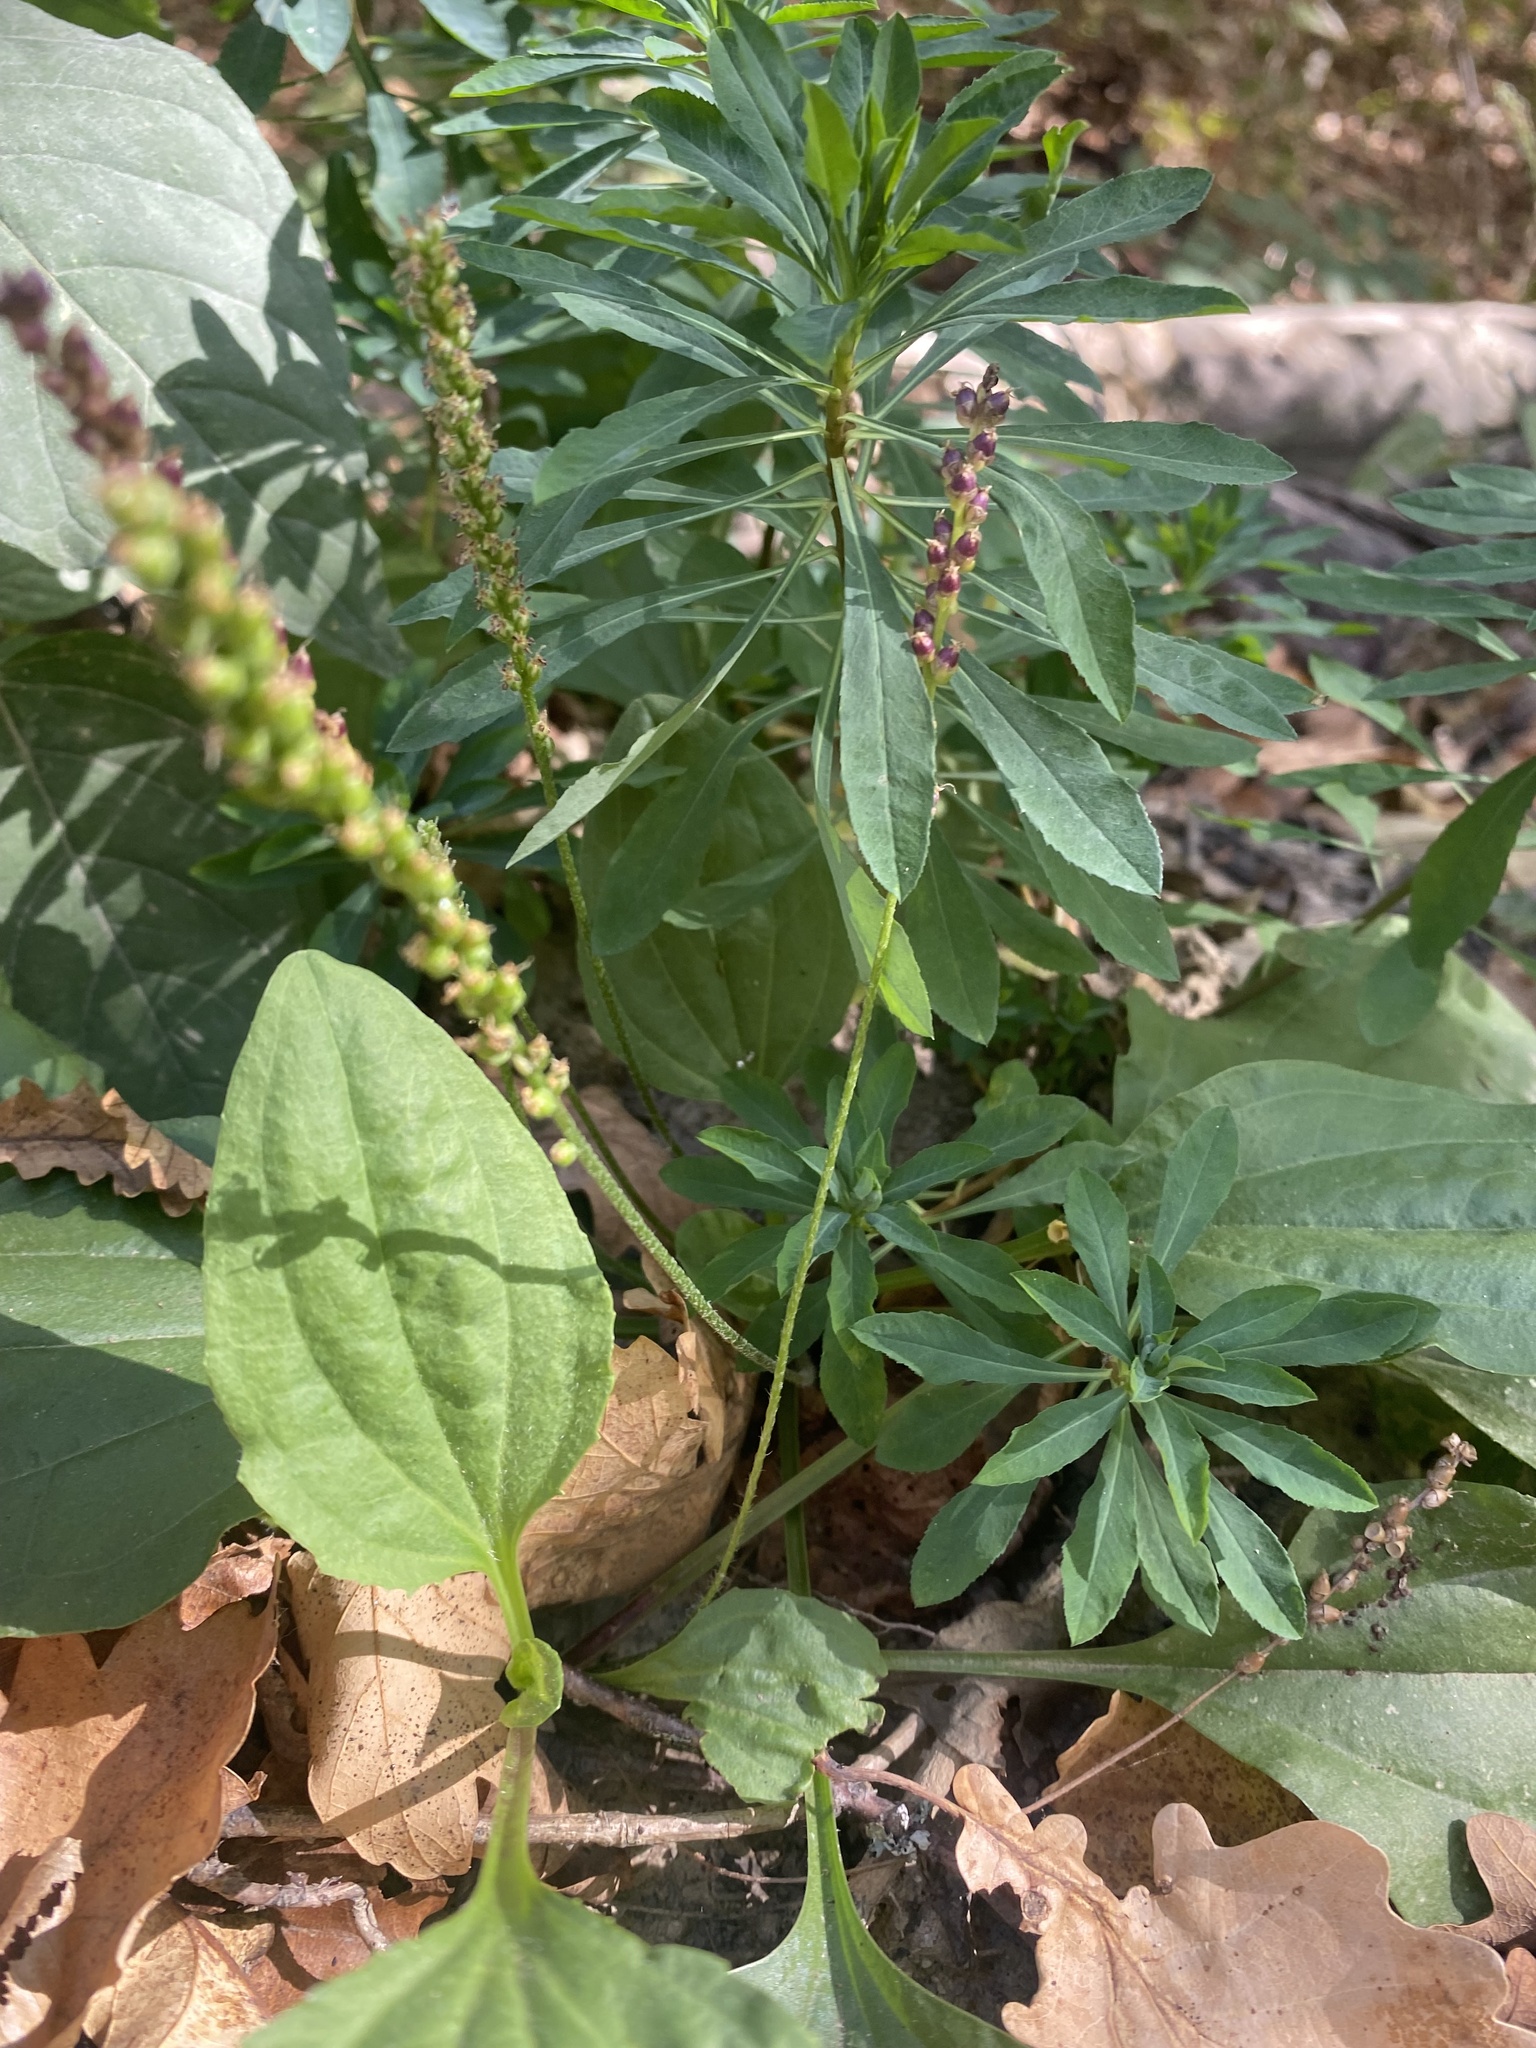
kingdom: Plantae
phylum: Tracheophyta
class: Magnoliopsida
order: Lamiales
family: Plantaginaceae
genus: Plantago
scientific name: Plantago major
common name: Common plantain
